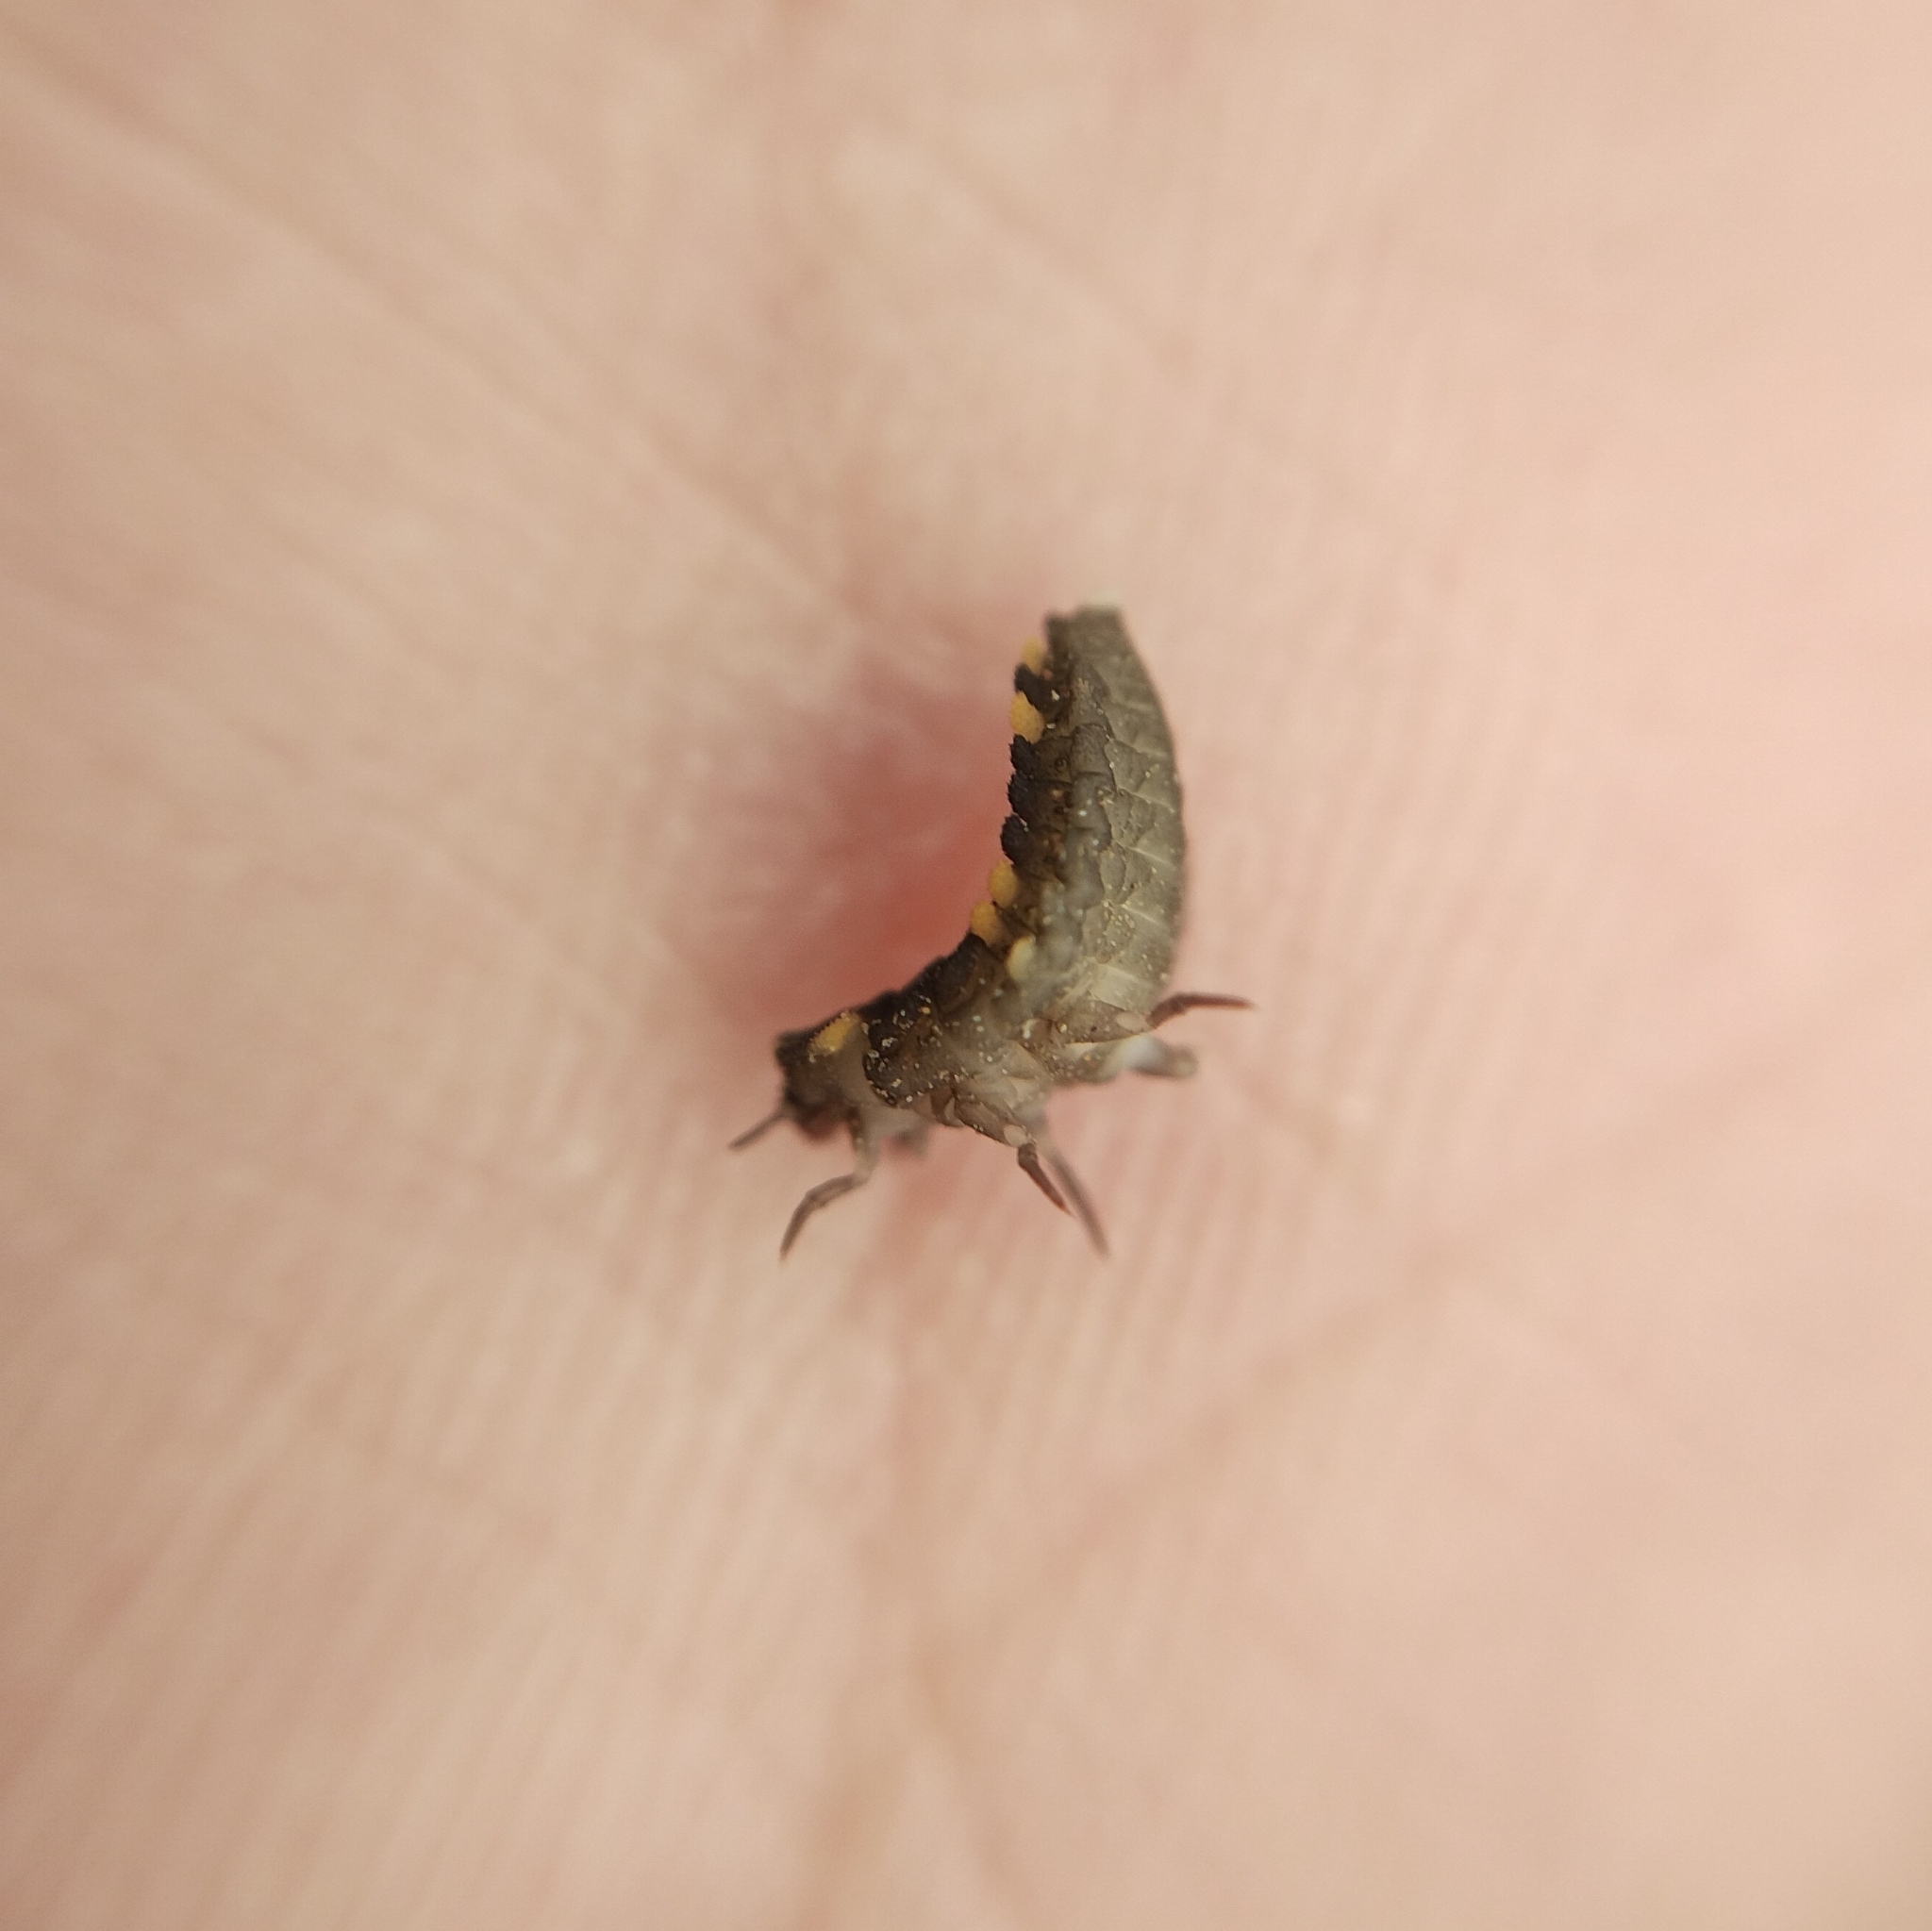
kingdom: Animalia
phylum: Arthropoda
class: Insecta
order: Coleoptera
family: Endomychidae
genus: Endomychus
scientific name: Endomychus coccineus
